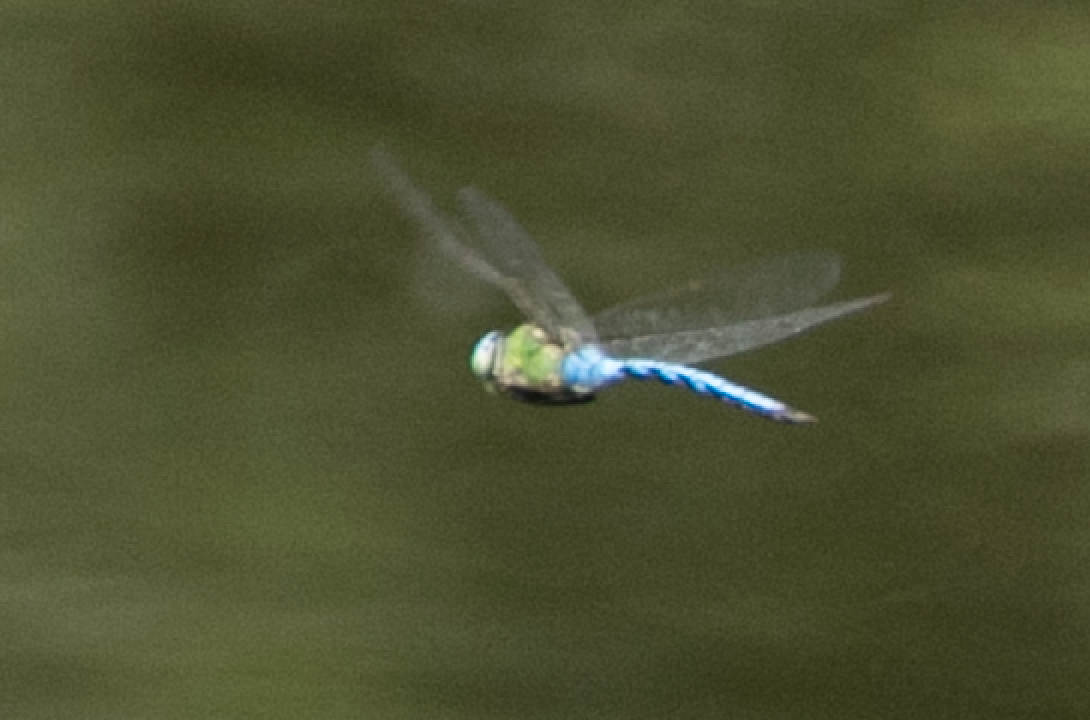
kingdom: Animalia
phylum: Arthropoda
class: Insecta
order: Odonata
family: Aeshnidae
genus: Anax
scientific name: Anax imperator
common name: Emperor dragonfly
